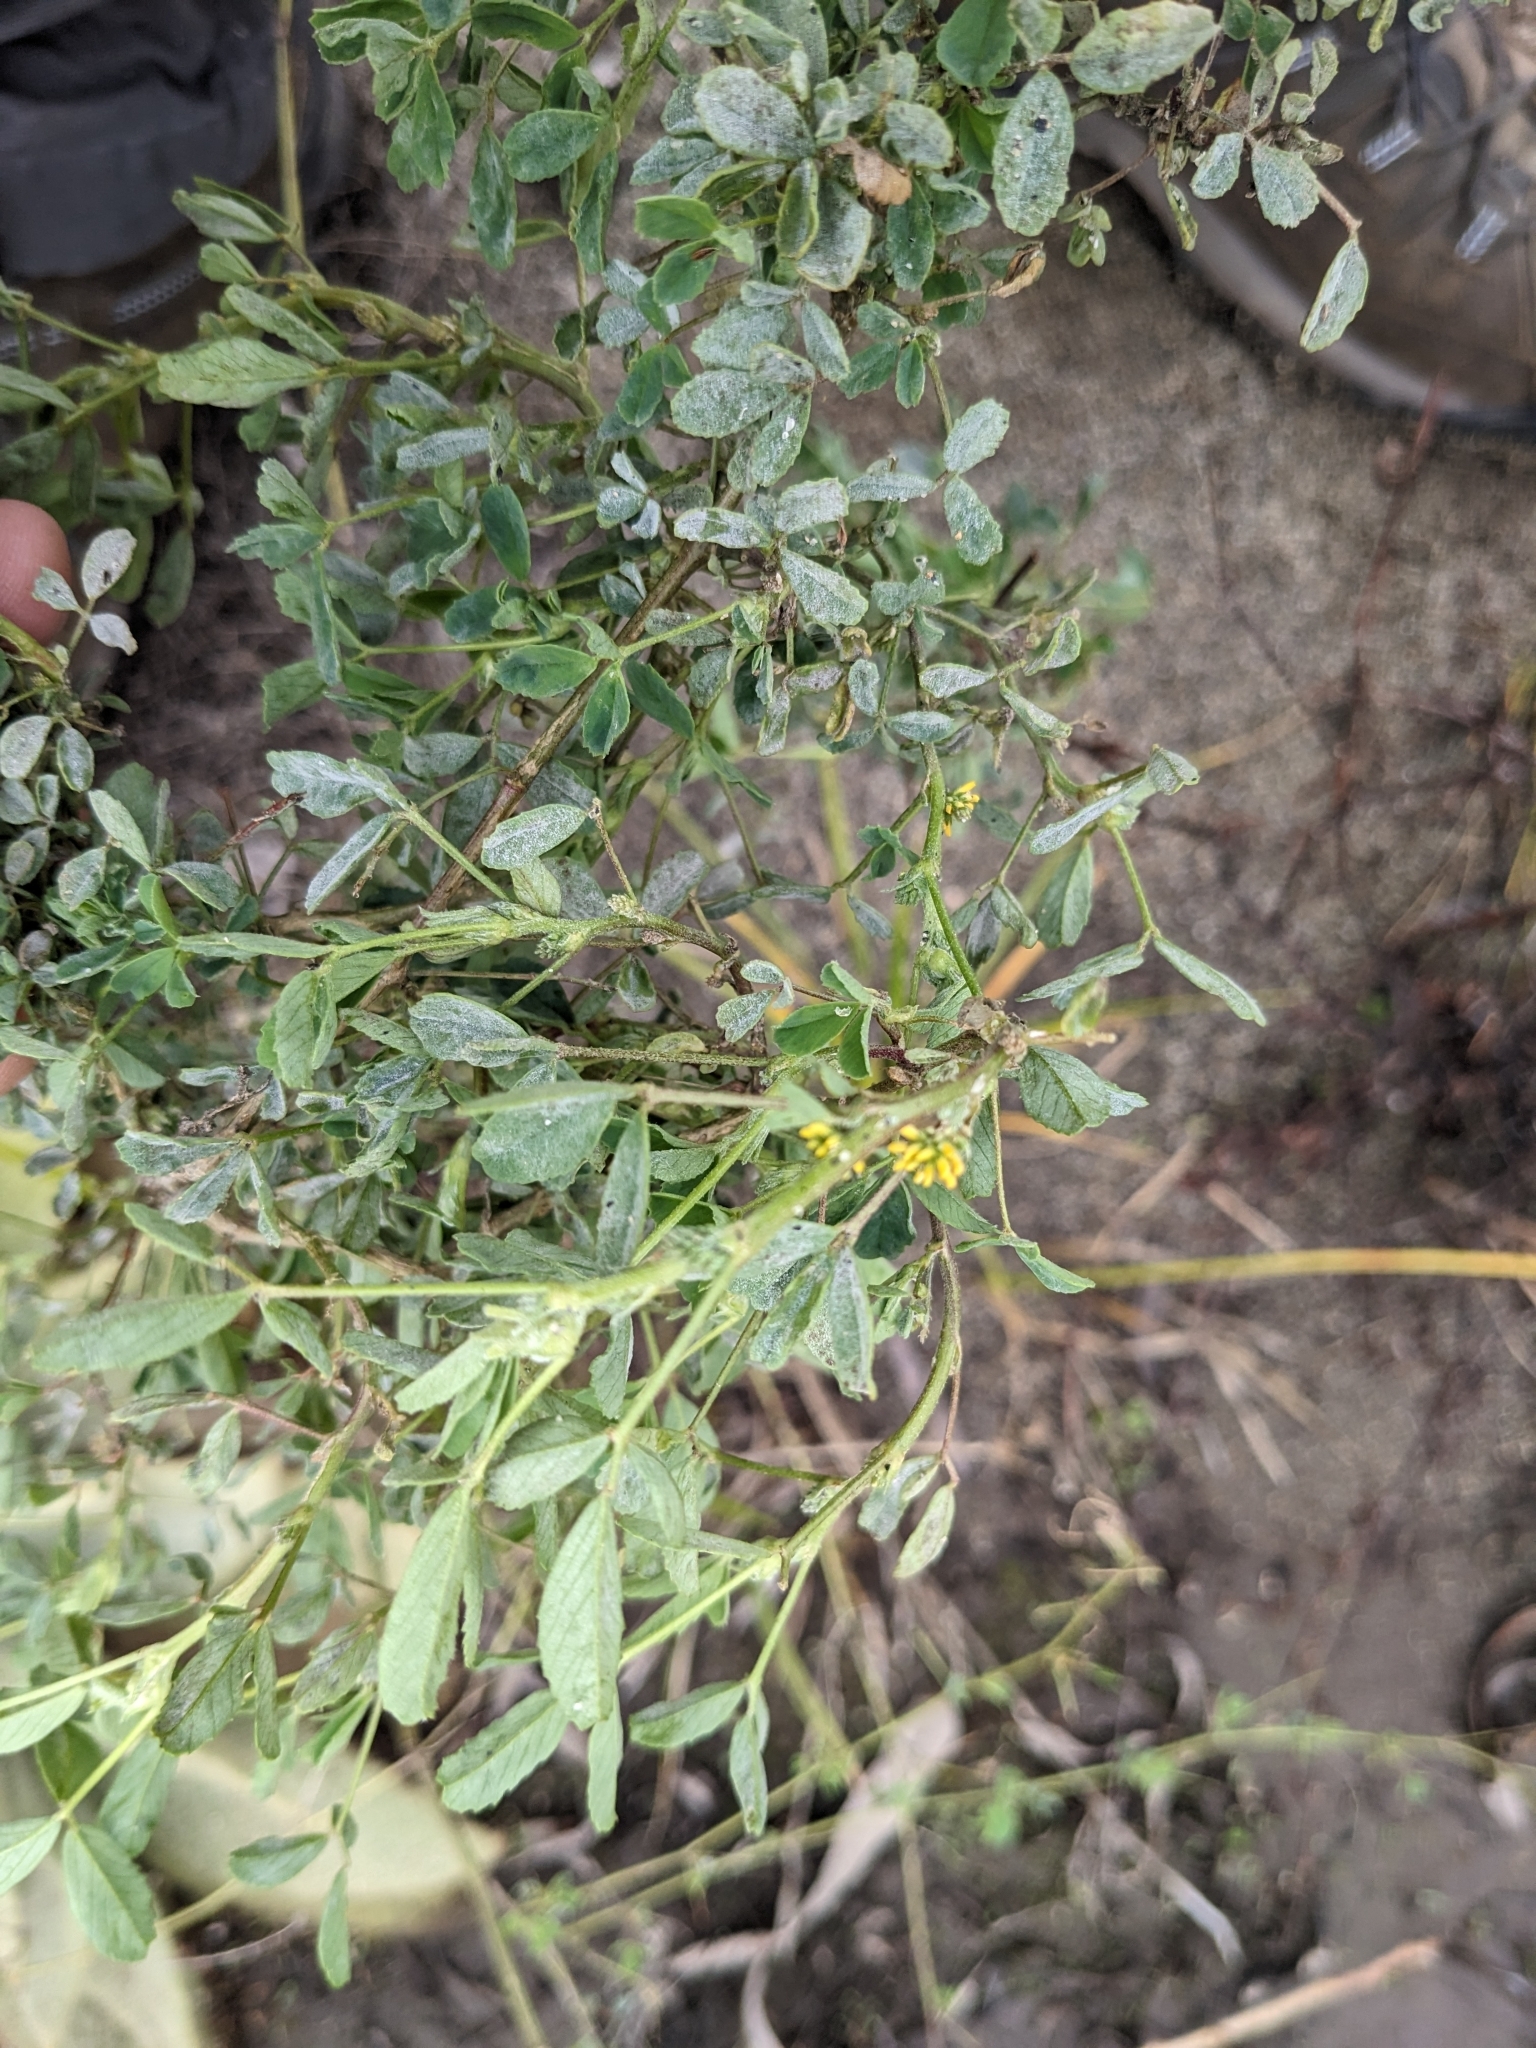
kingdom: Plantae
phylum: Tracheophyta
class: Magnoliopsida
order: Fabales
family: Fabaceae
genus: Melilotus
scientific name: Melilotus indicus
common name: Small melilot
